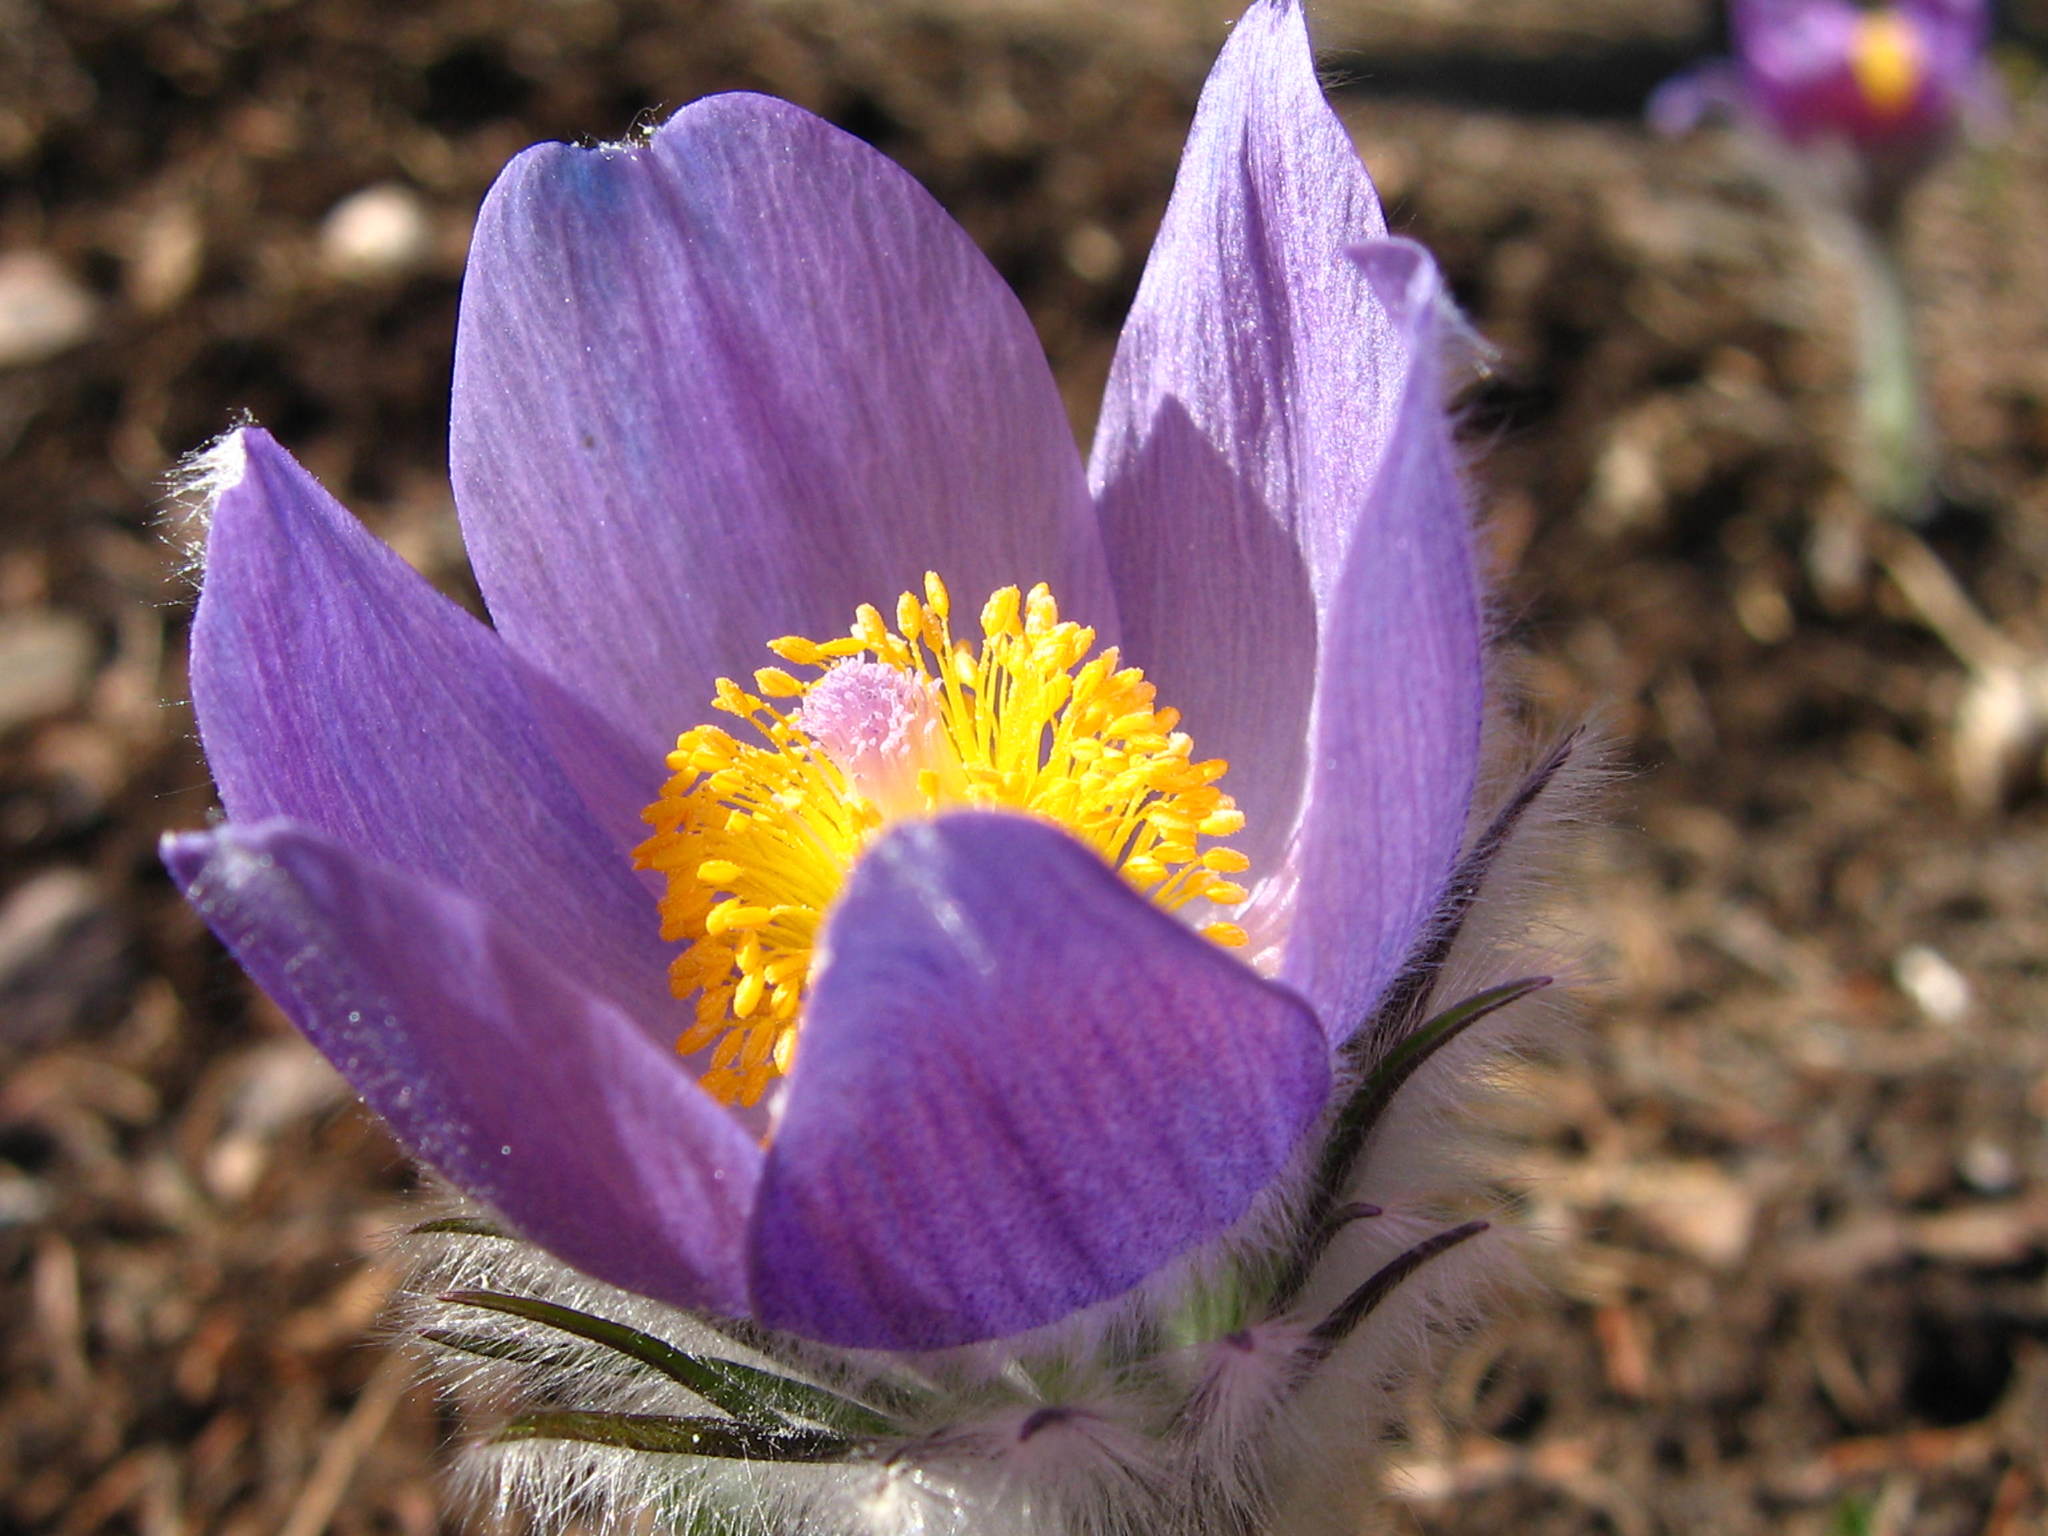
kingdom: Plantae
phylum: Tracheophyta
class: Magnoliopsida
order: Ranunculales
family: Ranunculaceae
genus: Pulsatilla
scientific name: Pulsatilla nuttalliana
